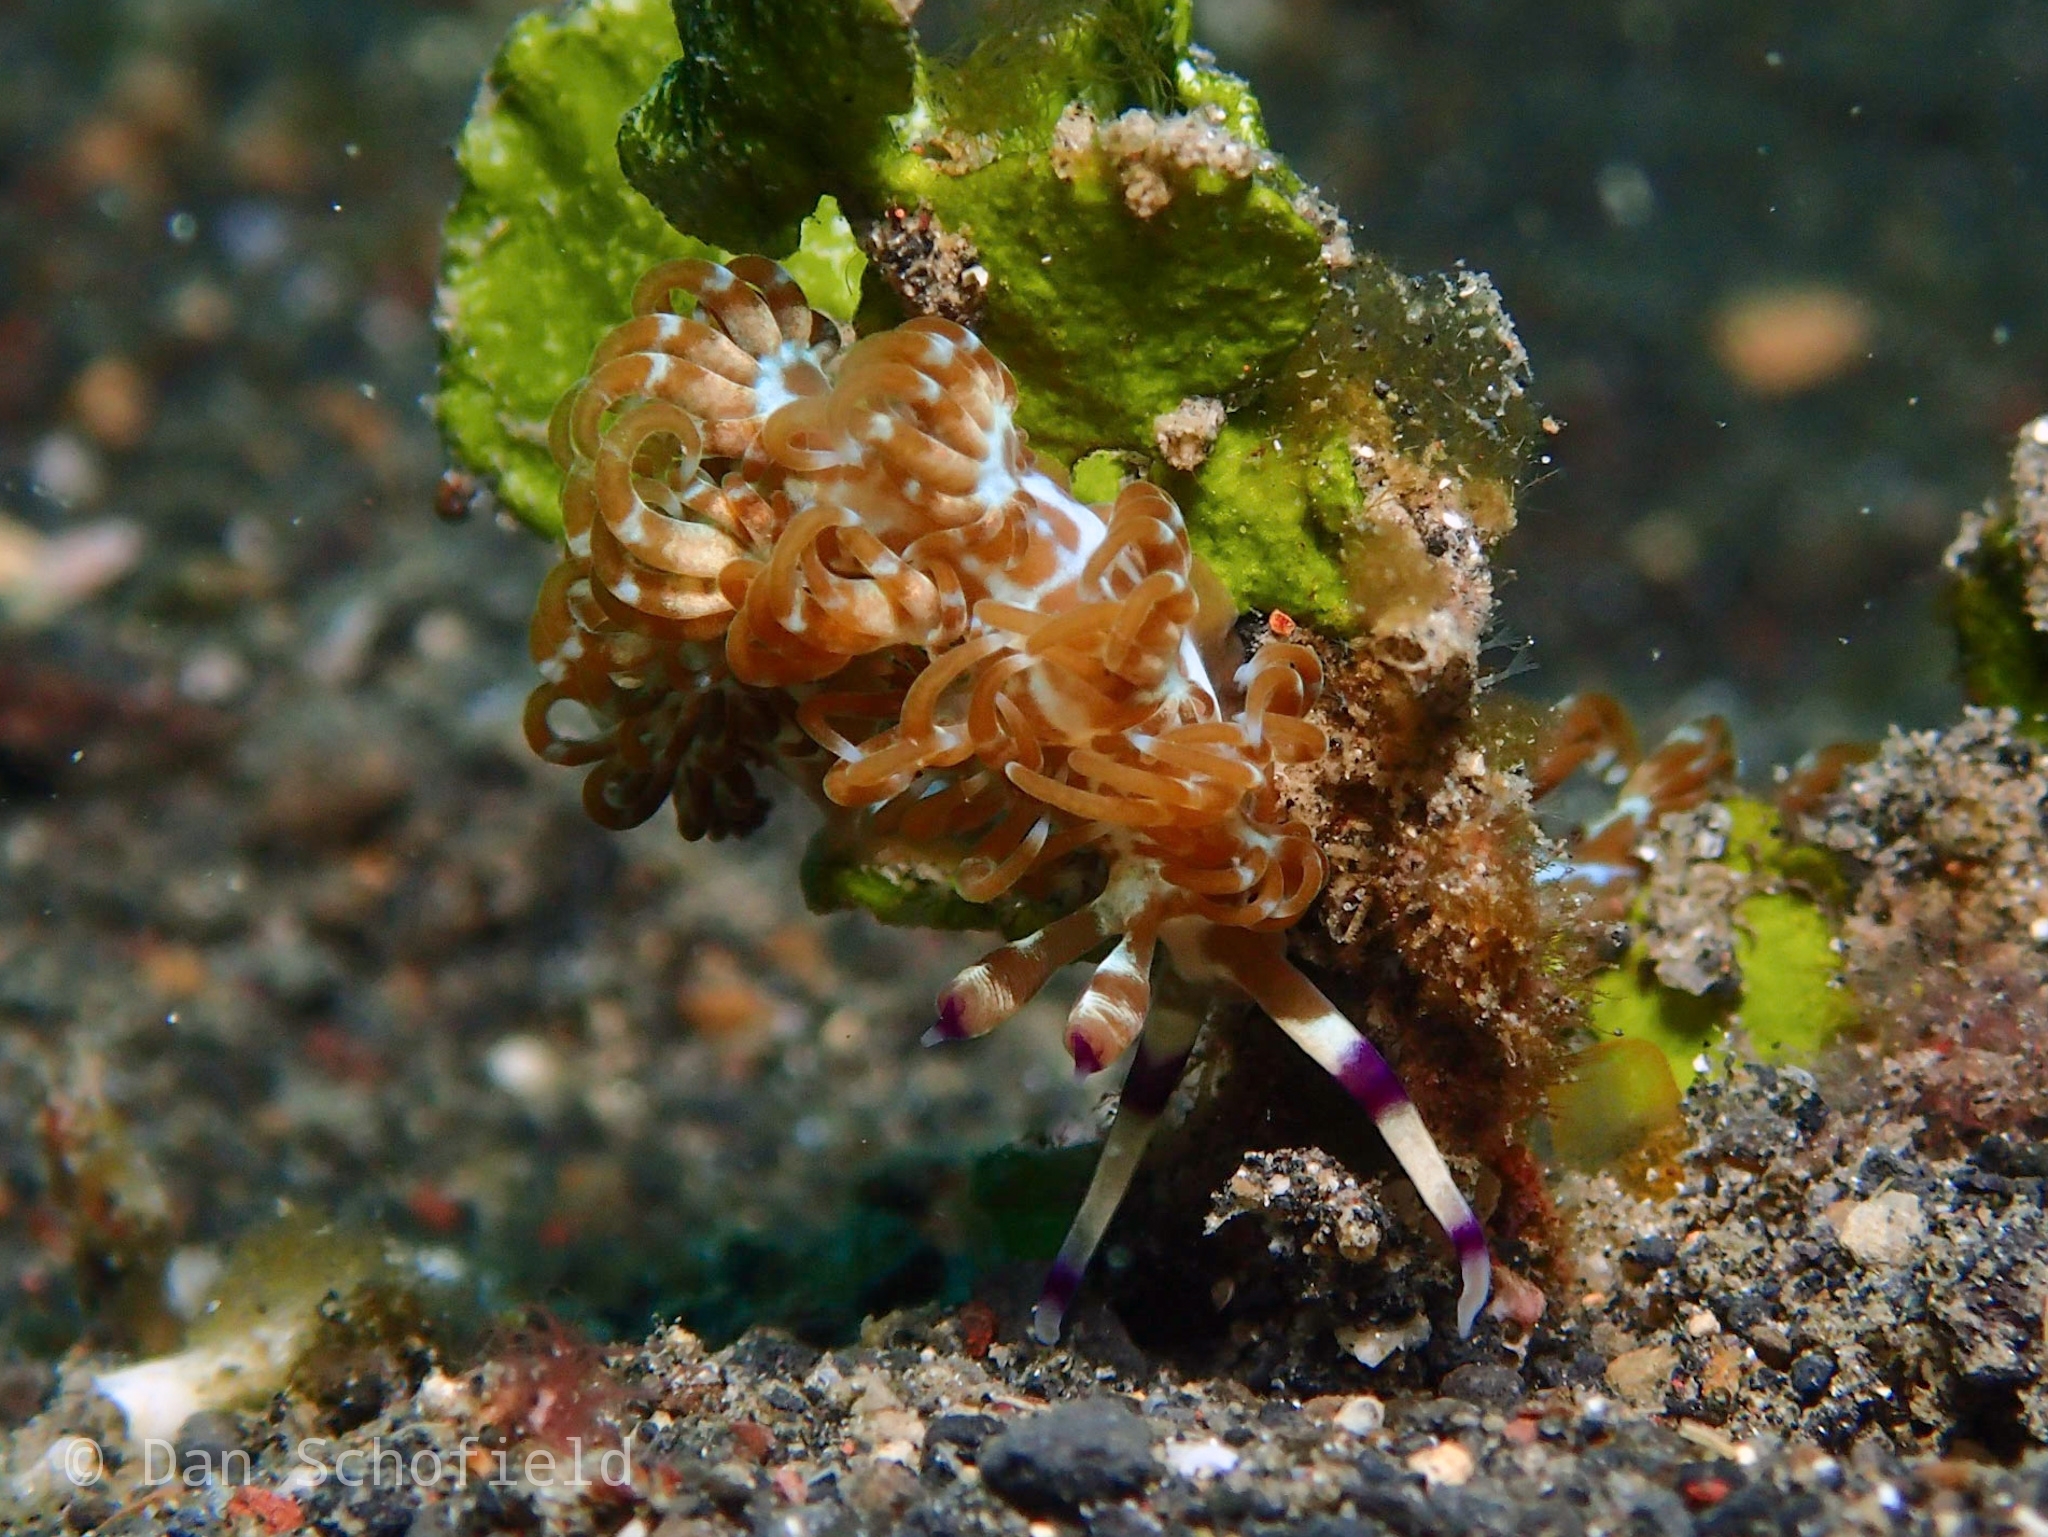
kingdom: Animalia
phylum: Mollusca
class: Gastropoda
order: Nudibranchia
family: Facelinidae
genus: Pteraeolidia
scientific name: Pteraeolidia semperi
